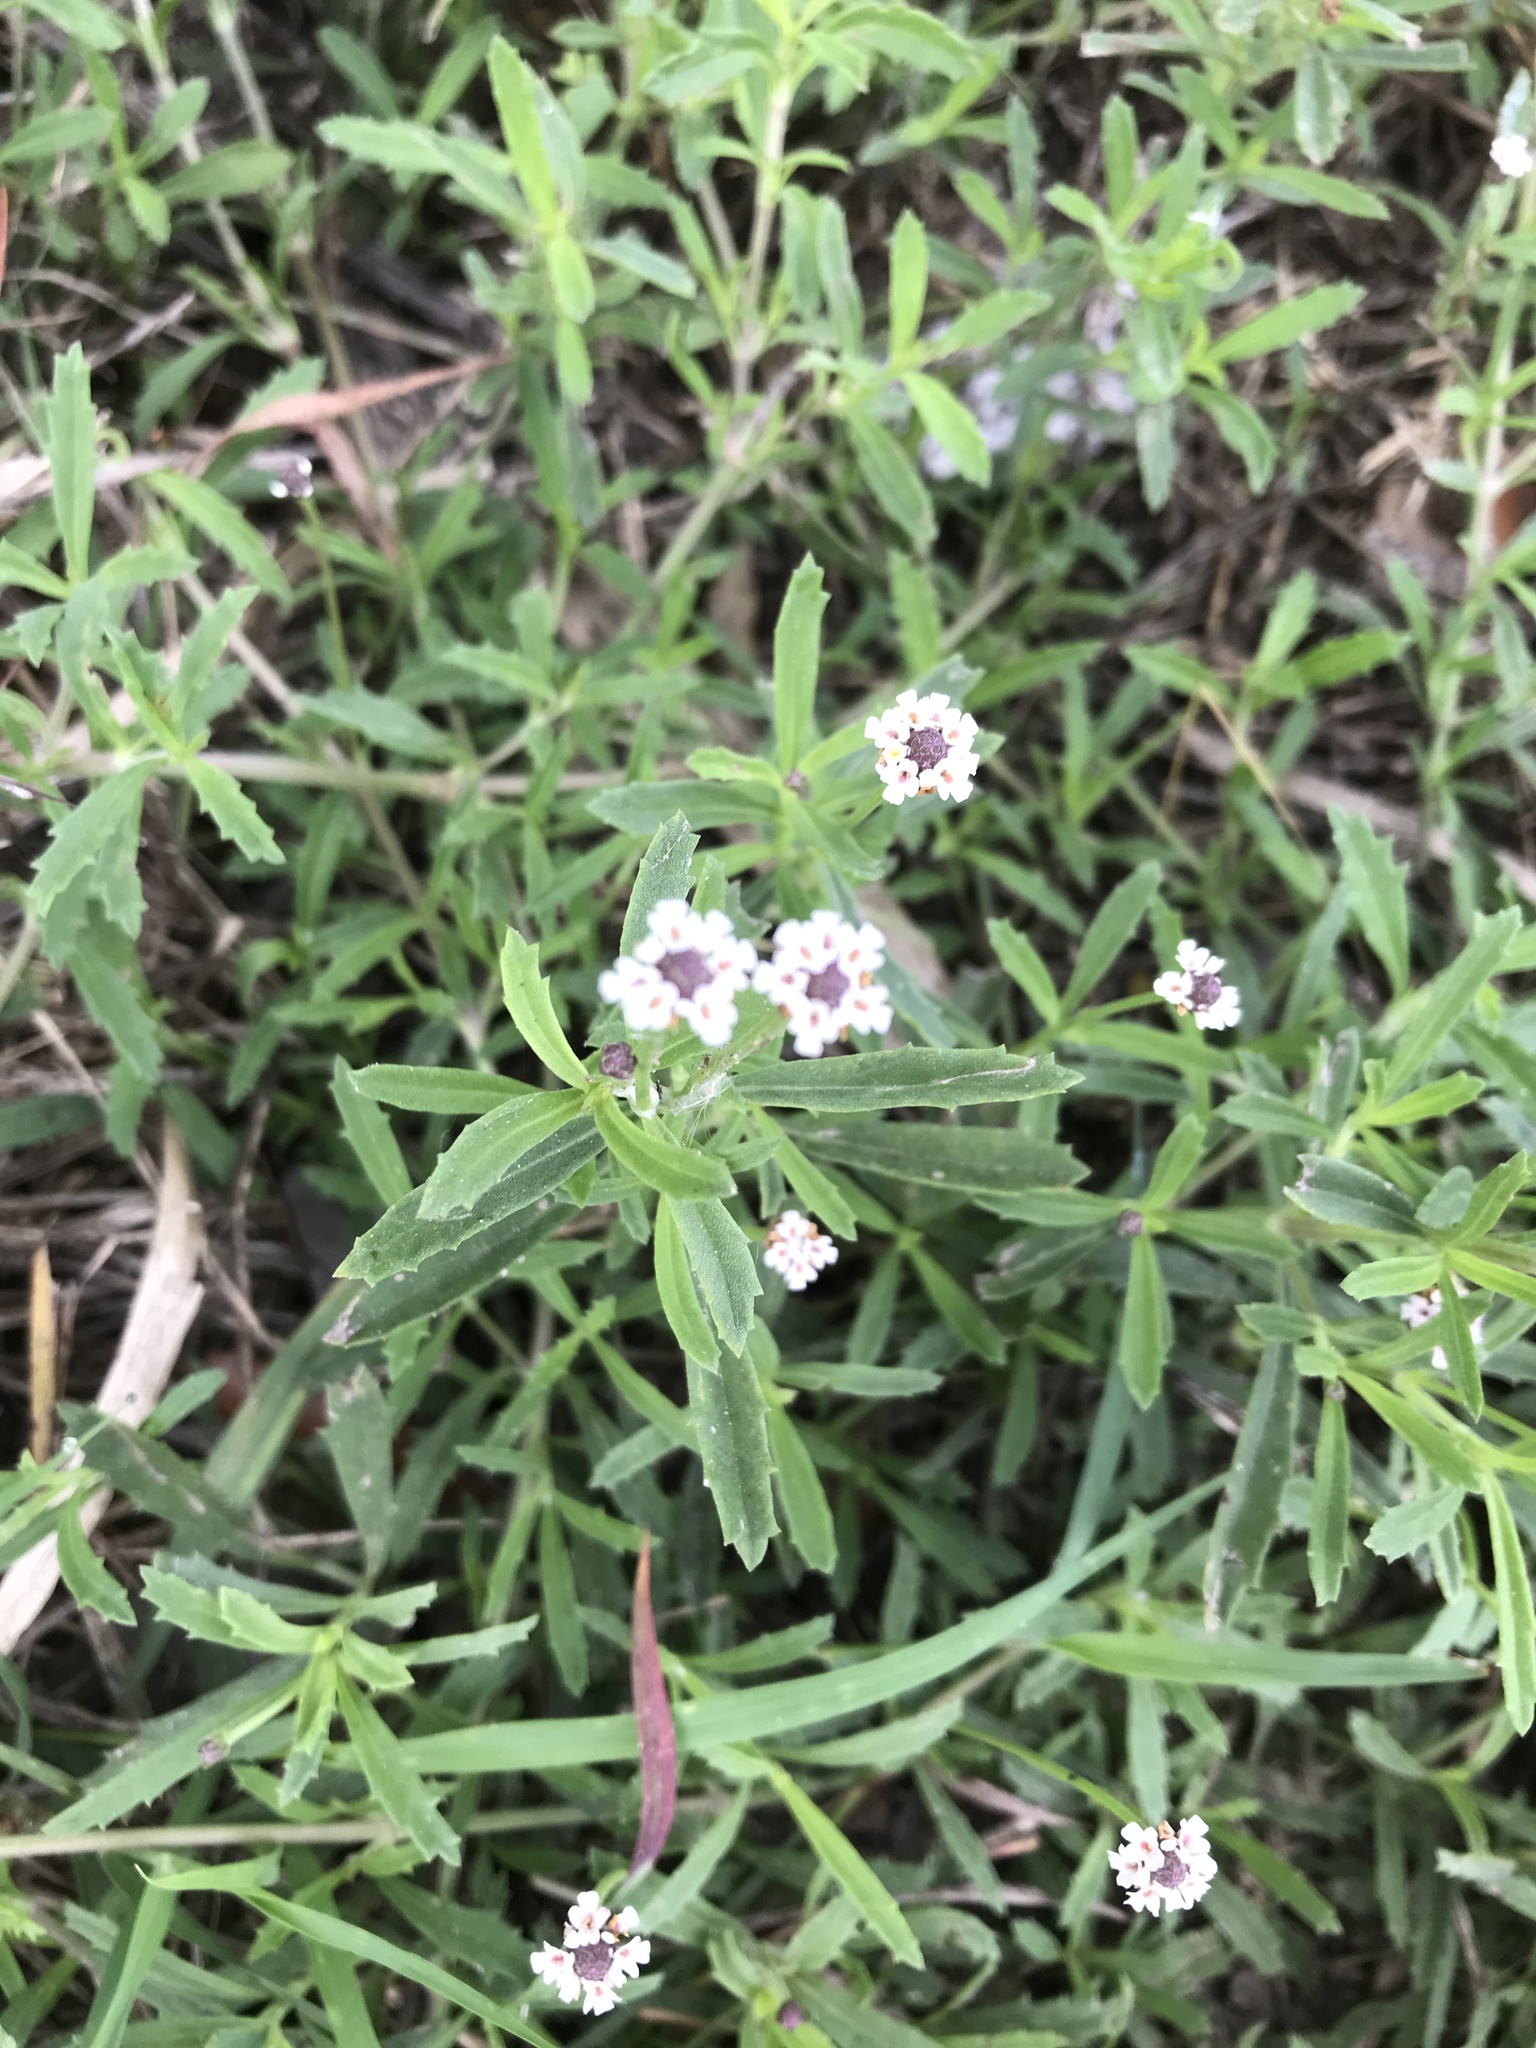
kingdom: Plantae
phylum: Tracheophyta
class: Magnoliopsida
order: Lamiales
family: Verbenaceae
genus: Phyla
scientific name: Phyla lanceolata
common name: Northern fogfruit
